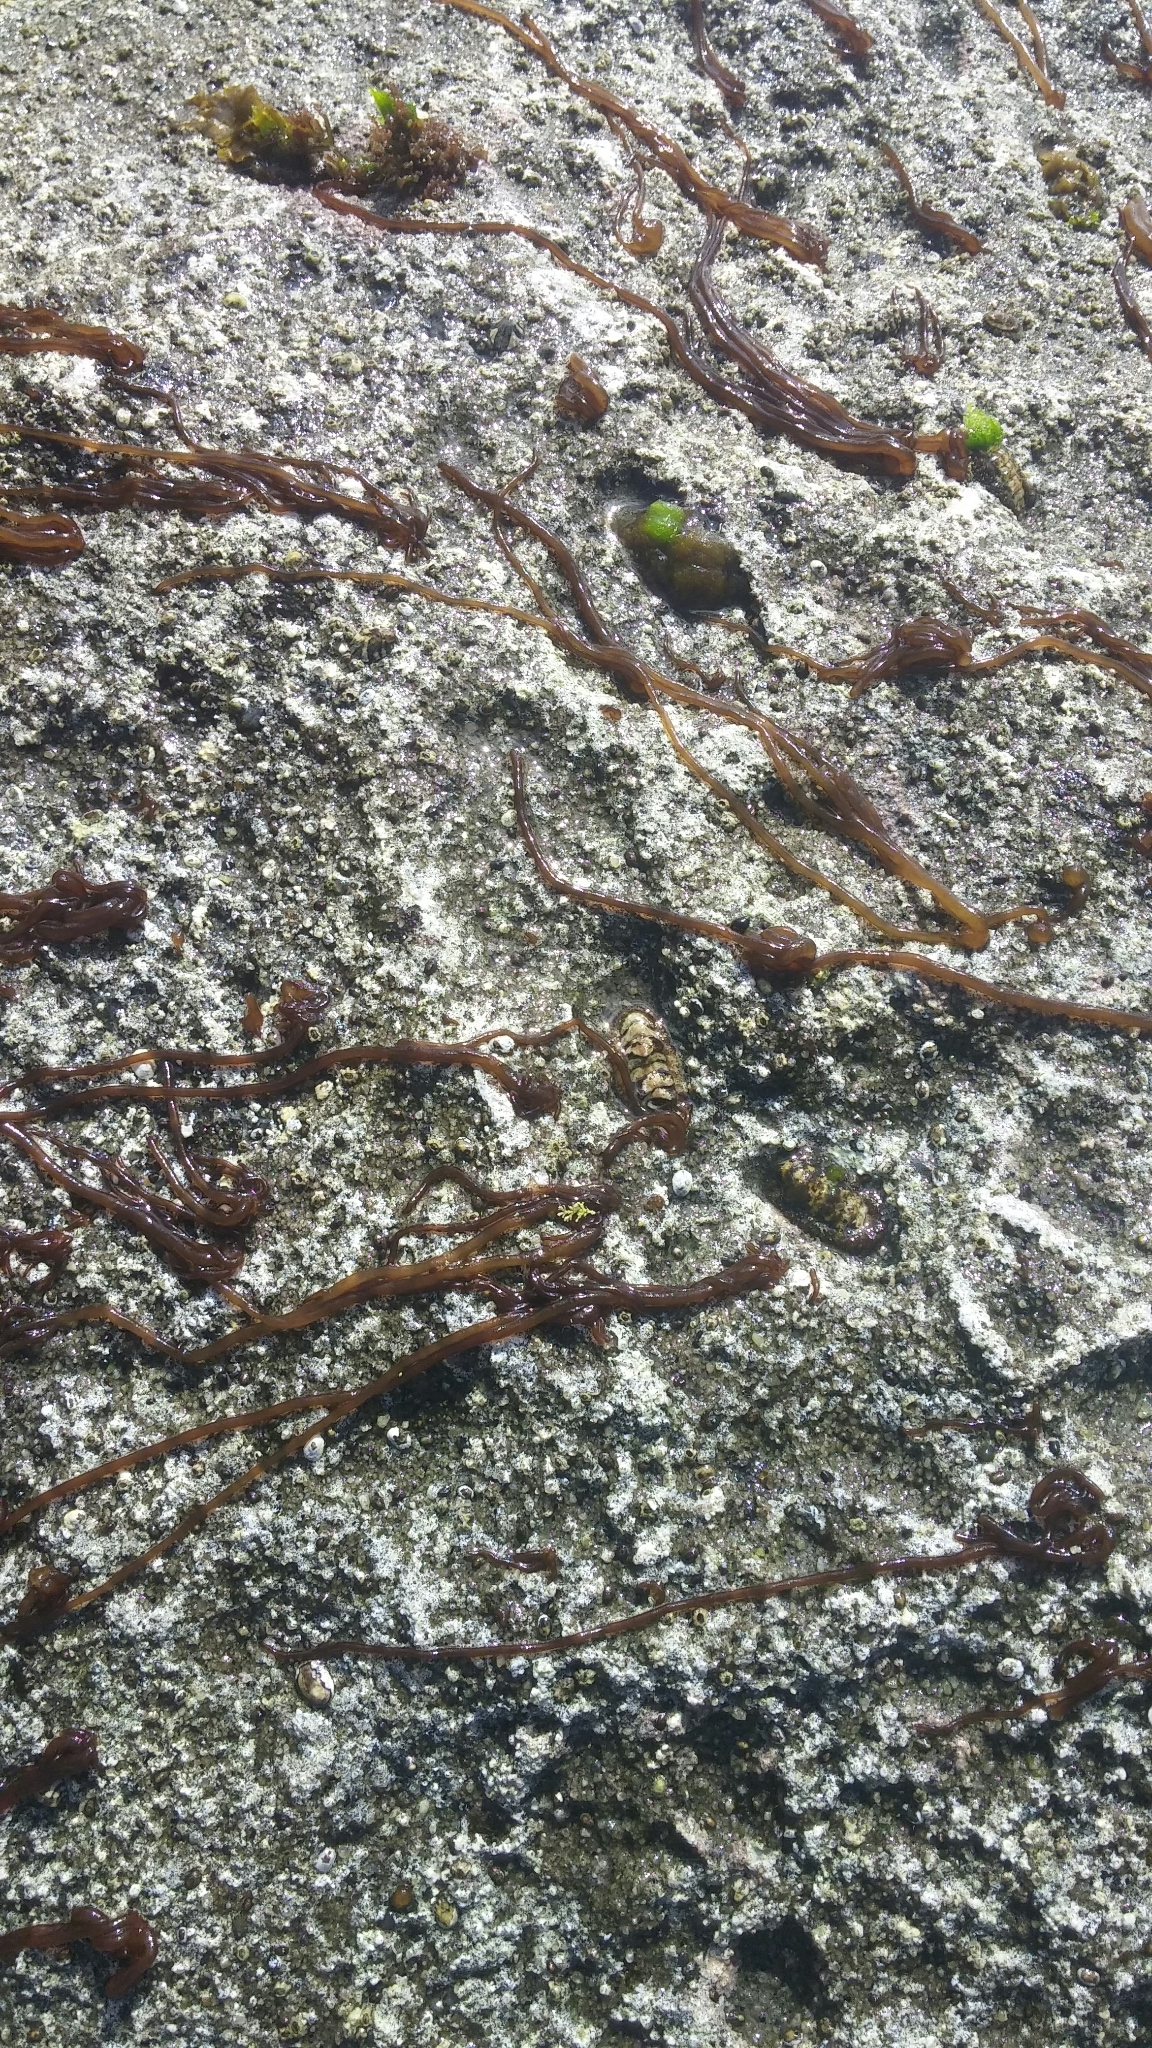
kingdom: Plantae
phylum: Rhodophyta
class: Florideophyceae
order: Nemaliales
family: Nemaliaceae
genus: Nemalion
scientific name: Nemalion elminthoides
